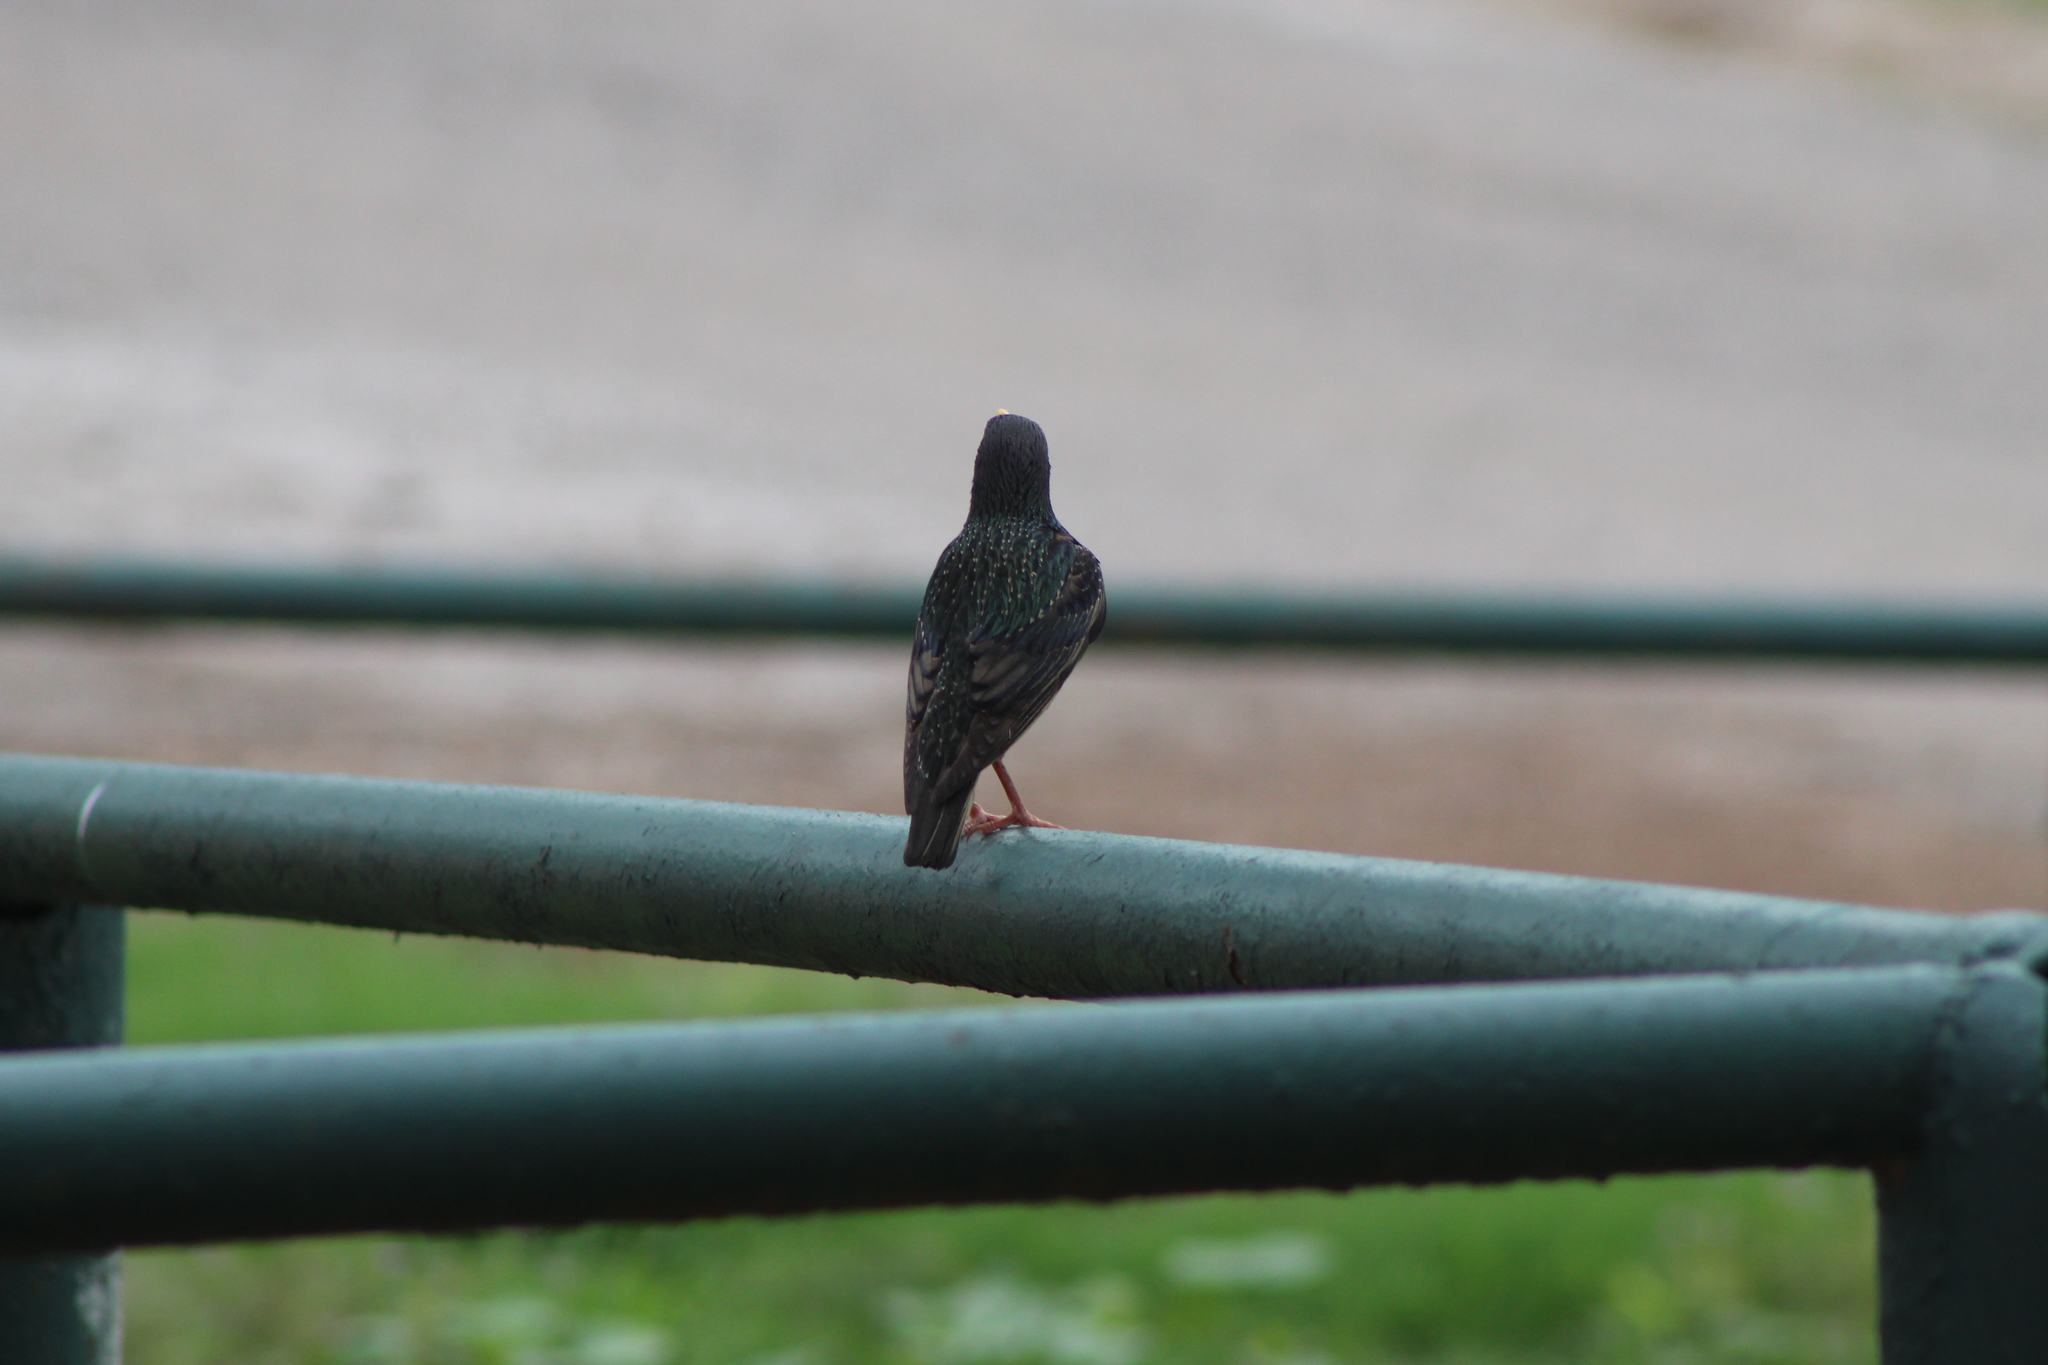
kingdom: Animalia
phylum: Chordata
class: Aves
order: Passeriformes
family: Sturnidae
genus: Sturnus
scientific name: Sturnus vulgaris
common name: Common starling
